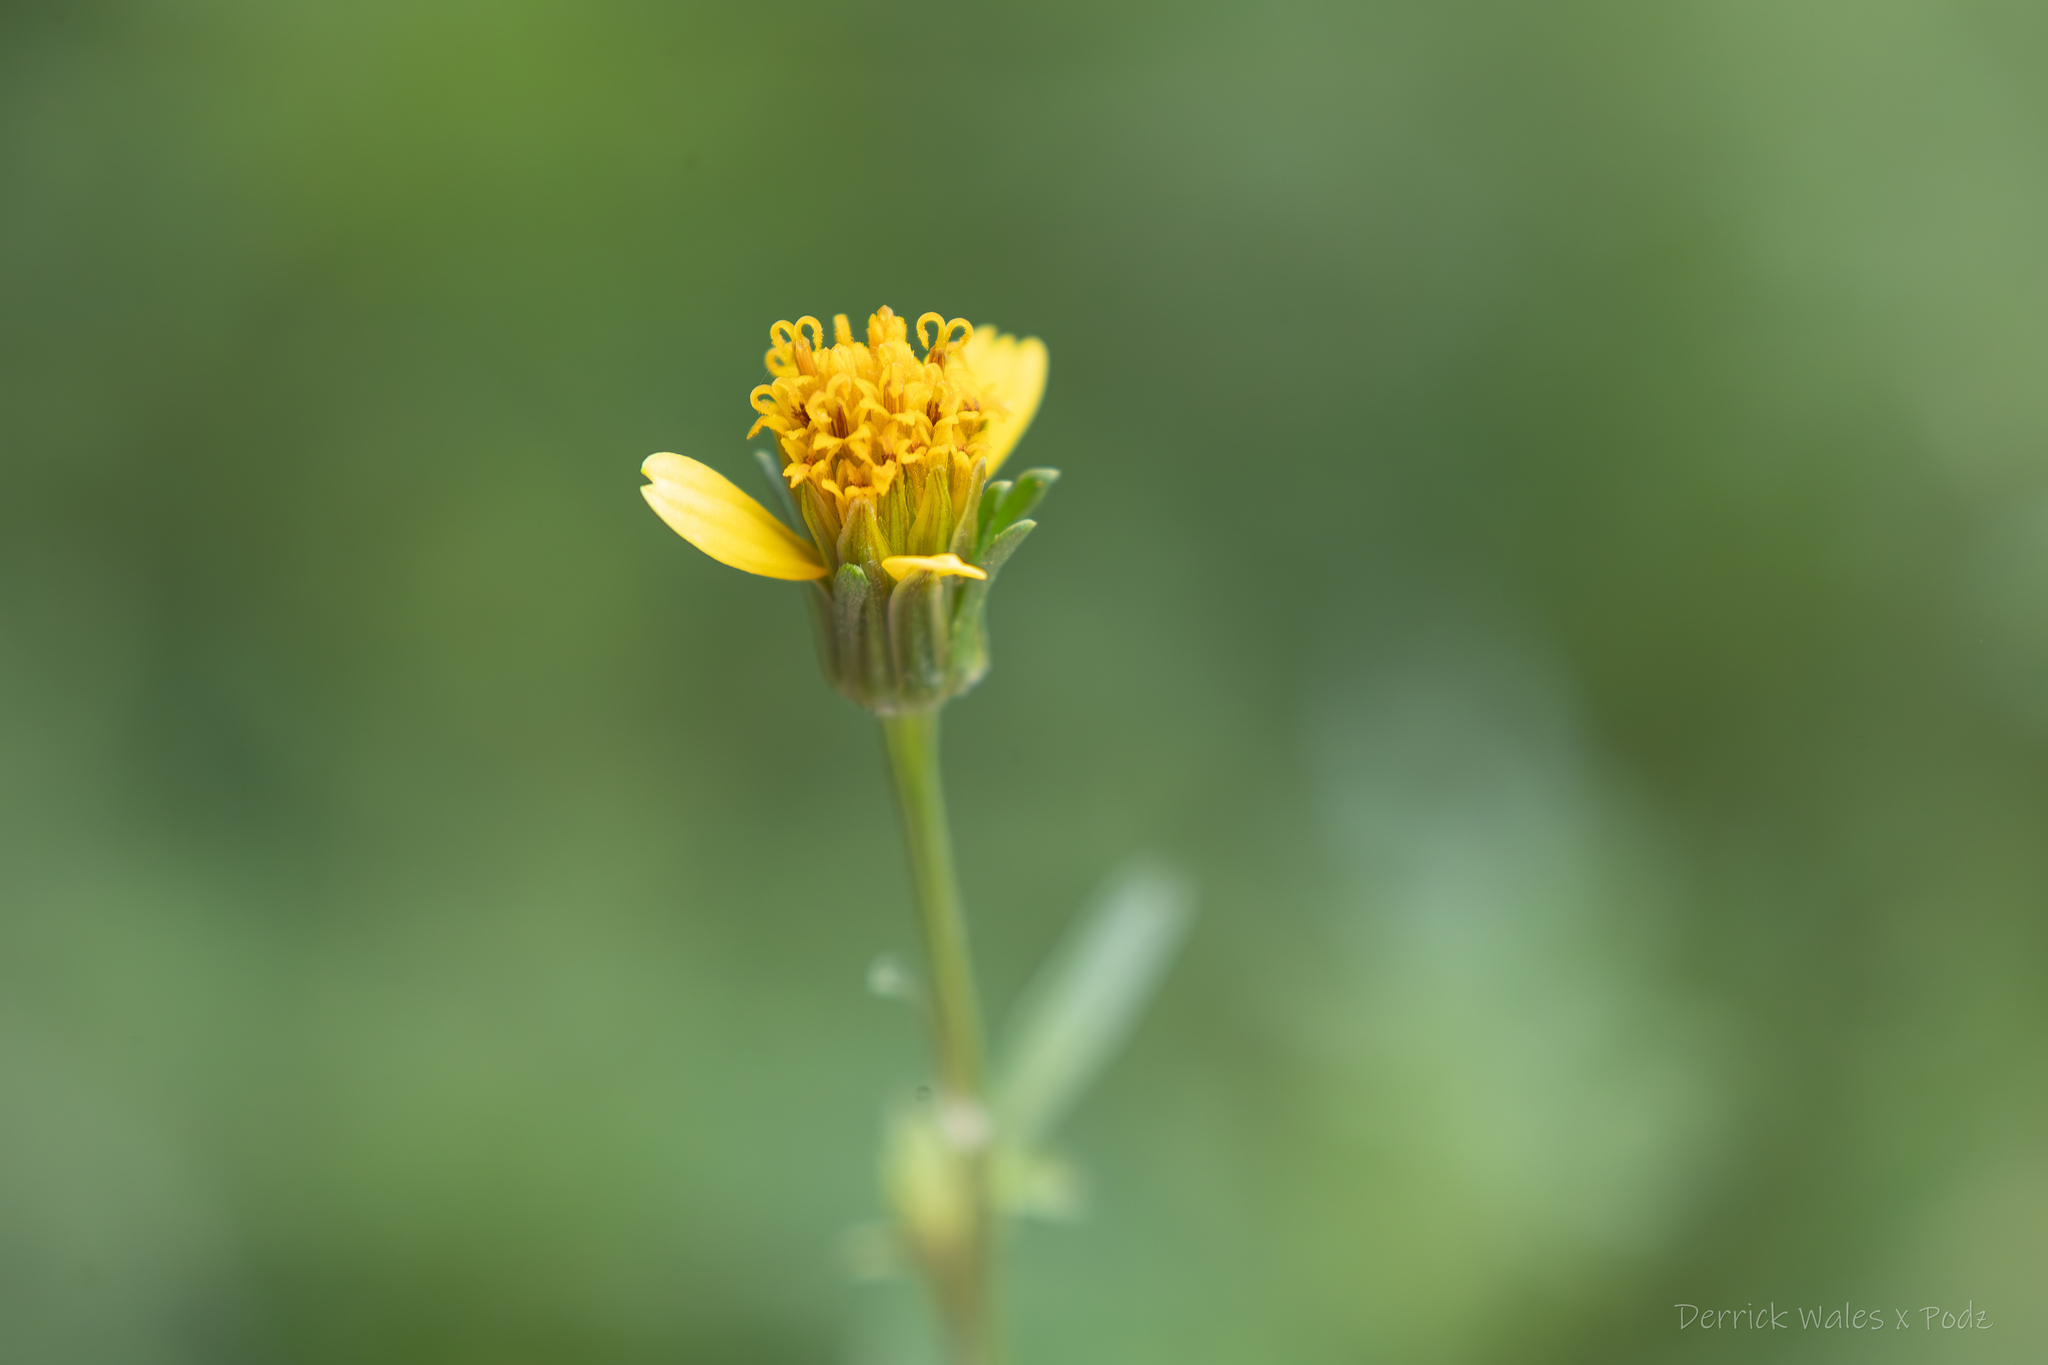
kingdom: Plantae
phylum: Tracheophyta
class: Magnoliopsida
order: Asterales
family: Asteraceae
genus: Bidens
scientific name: Bidens bipinnata
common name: Spanish-needles
